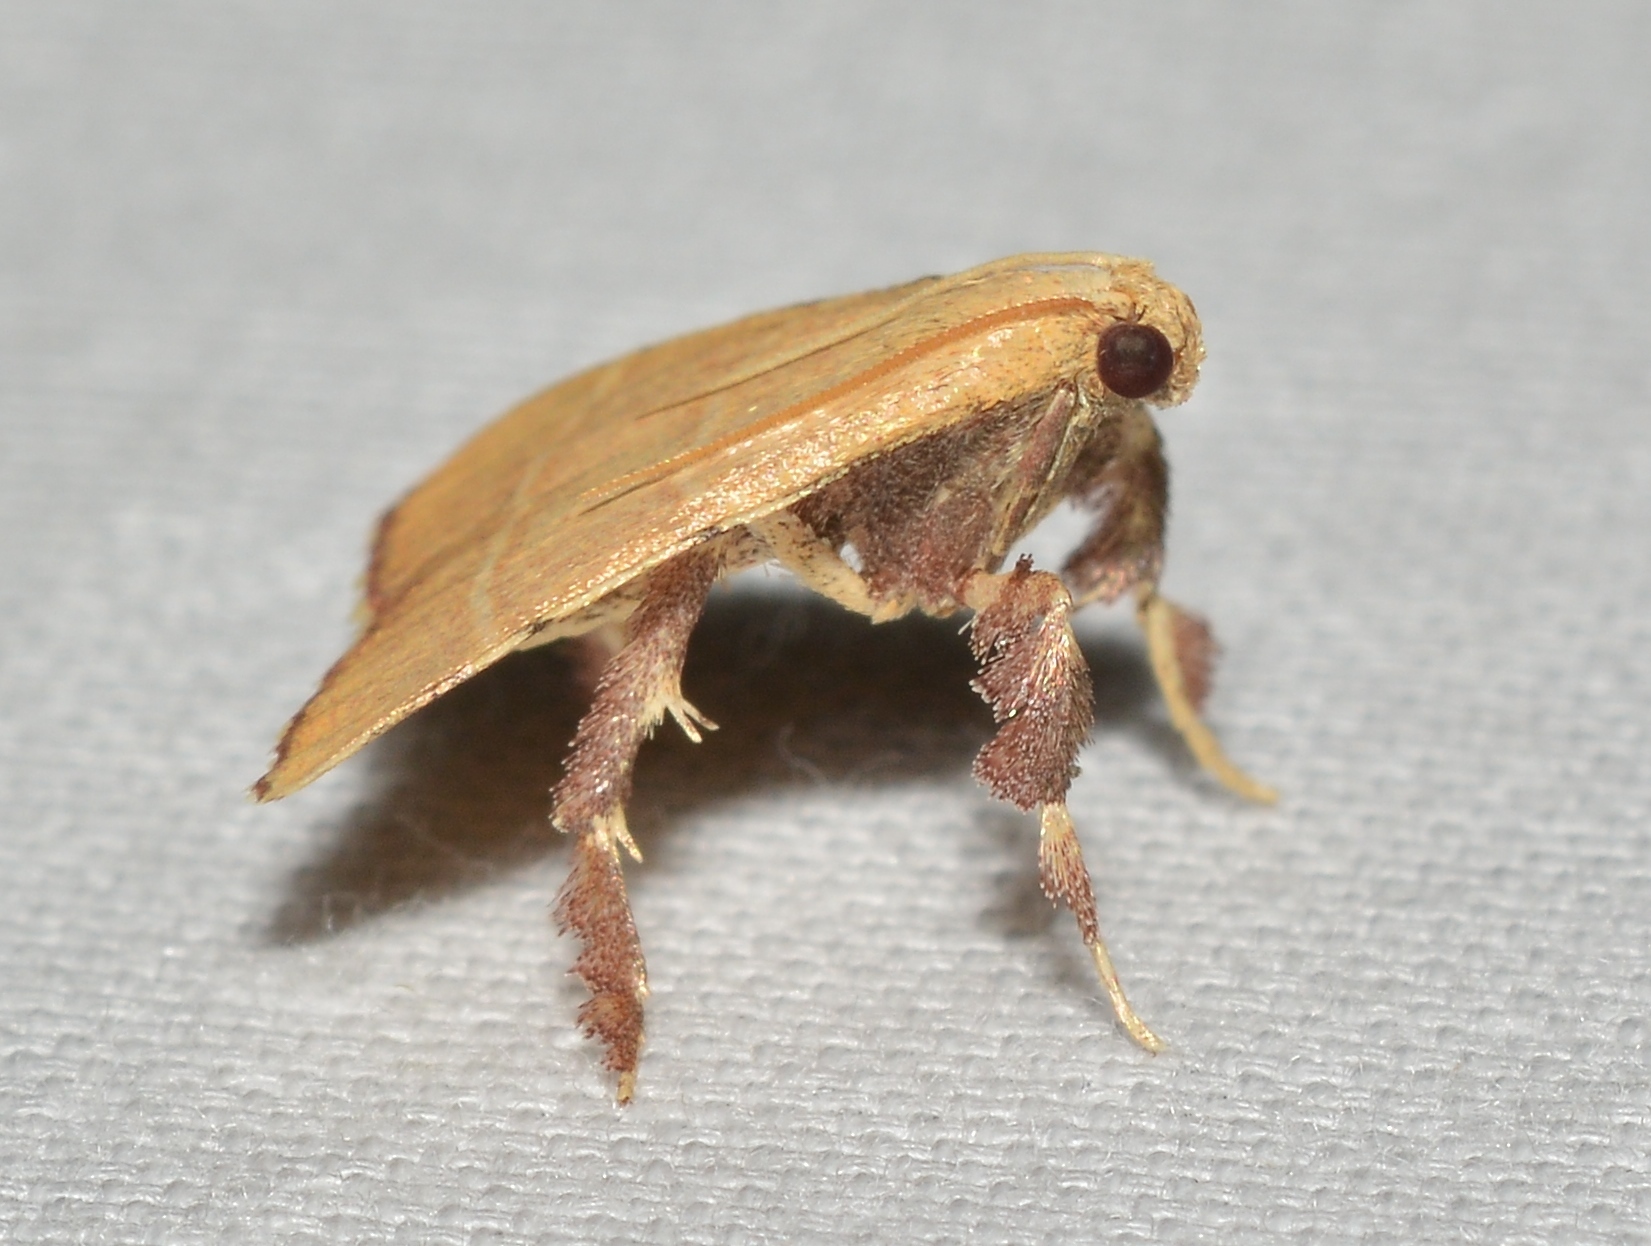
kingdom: Animalia
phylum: Arthropoda
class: Insecta
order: Lepidoptera
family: Pyralidae
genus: Parachma
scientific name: Parachma ochracealis
